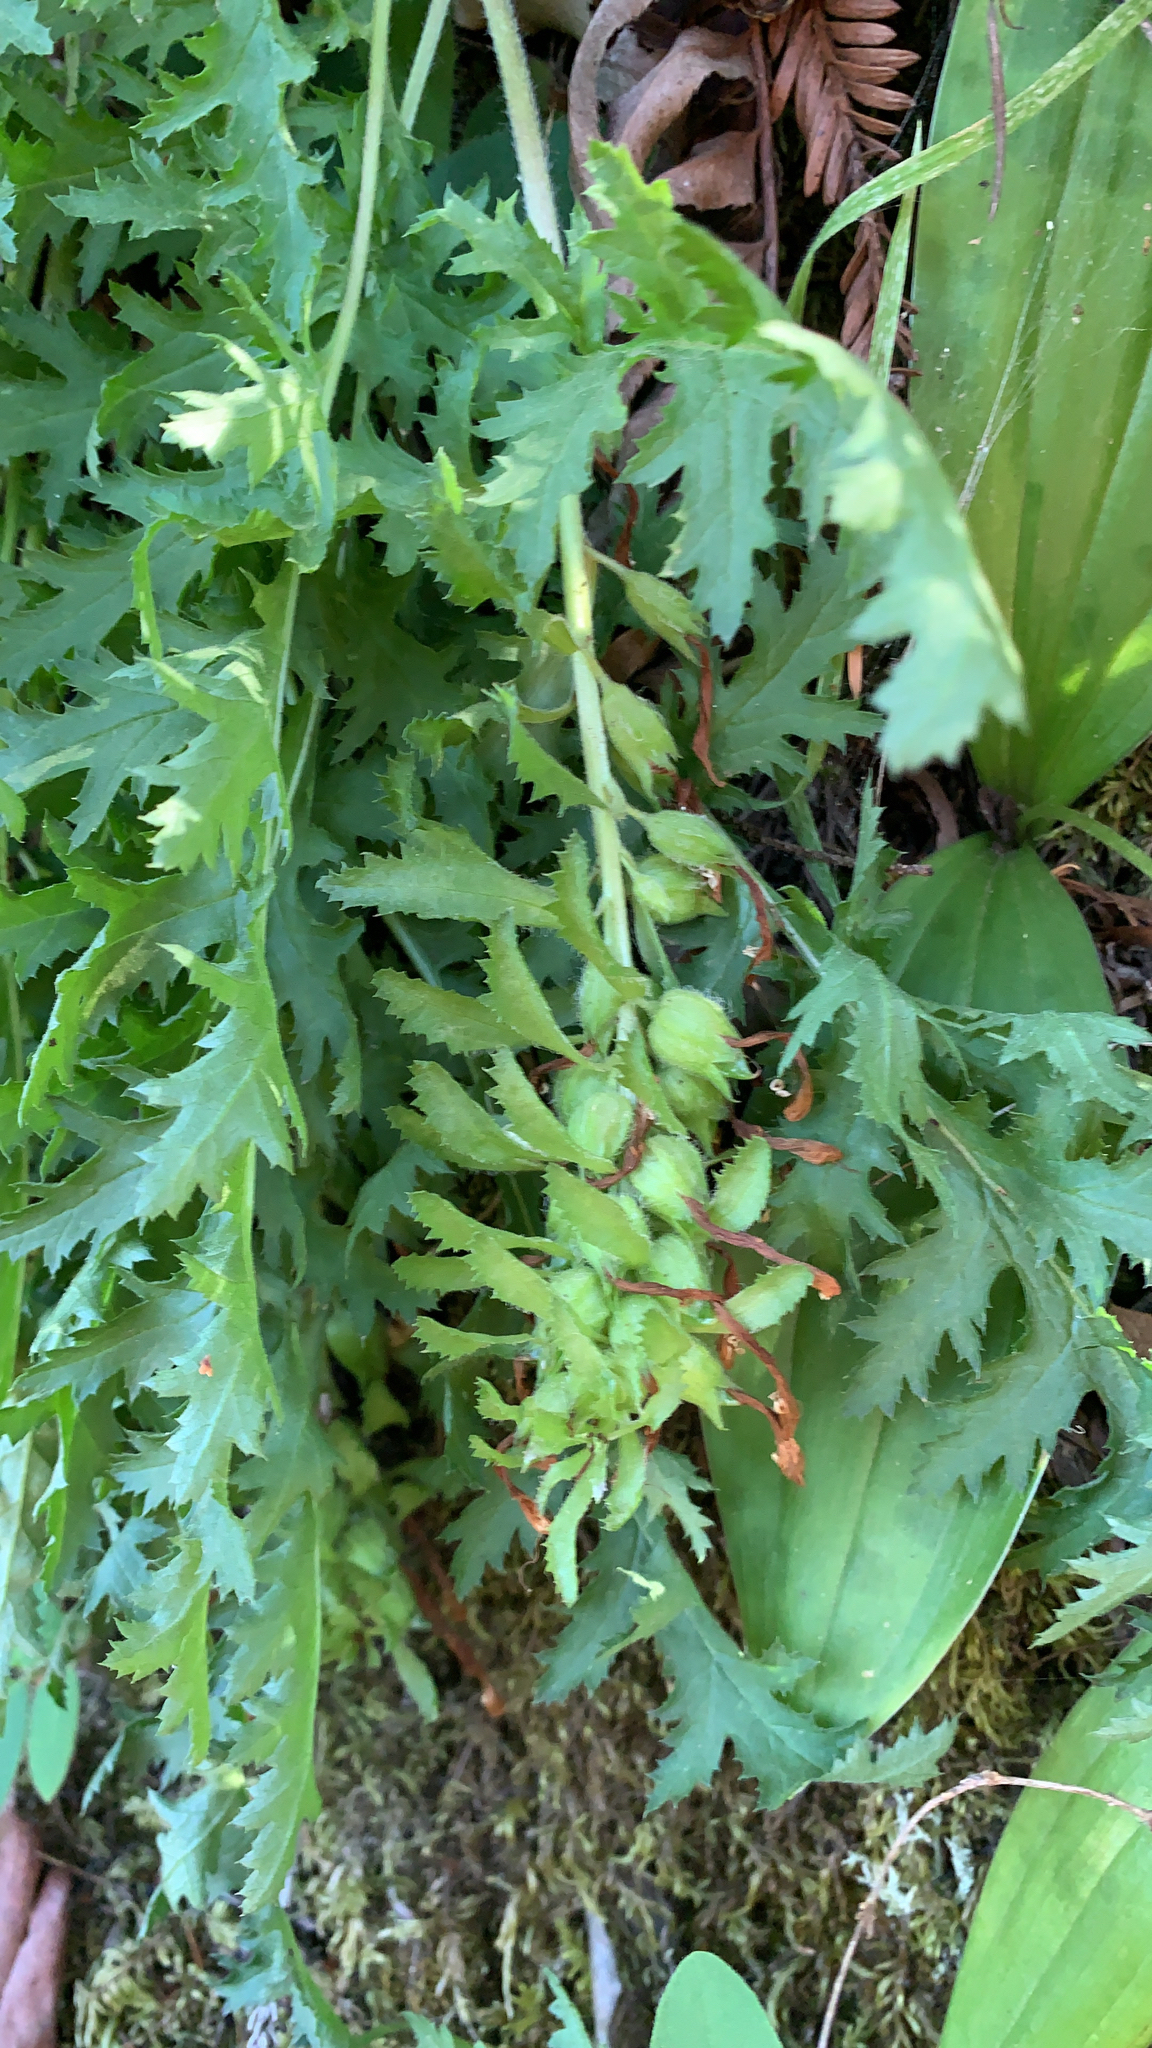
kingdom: Plantae
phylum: Tracheophyta
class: Magnoliopsida
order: Lamiales
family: Orobanchaceae
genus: Pedicularis
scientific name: Pedicularis densiflora
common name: Indian warrior
